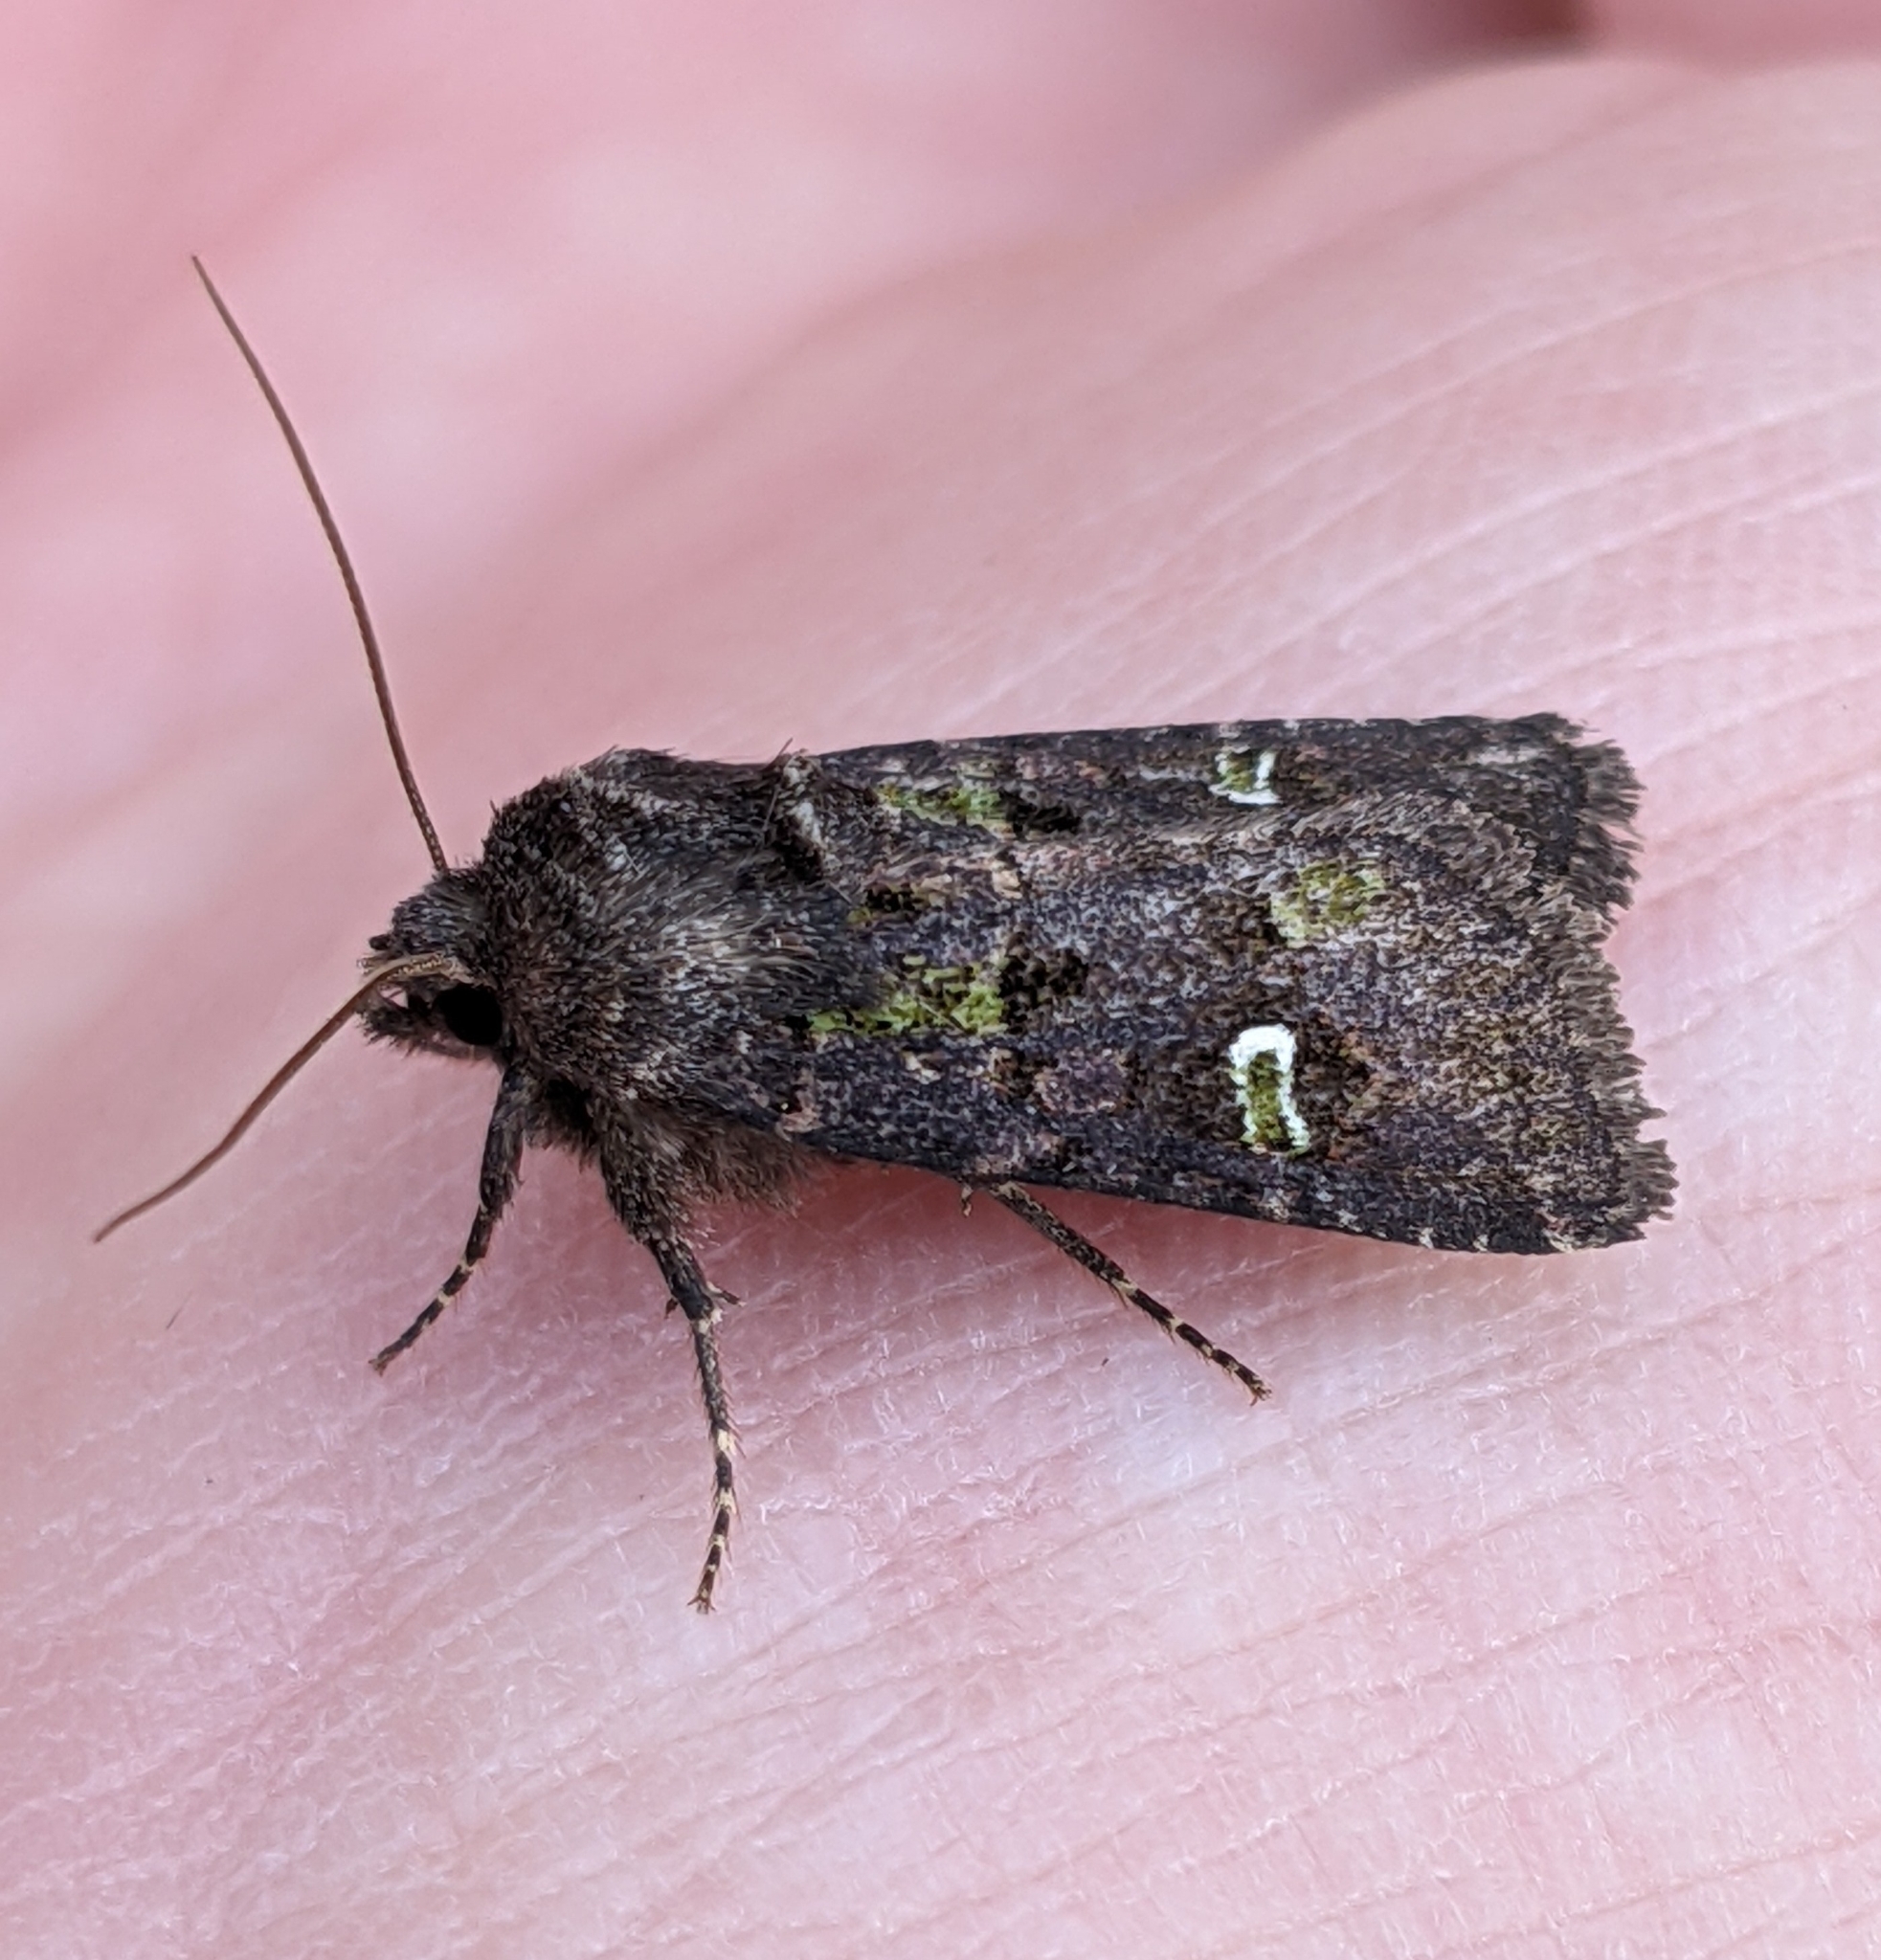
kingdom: Animalia
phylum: Arthropoda
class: Insecta
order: Lepidoptera
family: Noctuidae
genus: Lacinipolia
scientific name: Lacinipolia renigera
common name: Kidney-spotted minor
